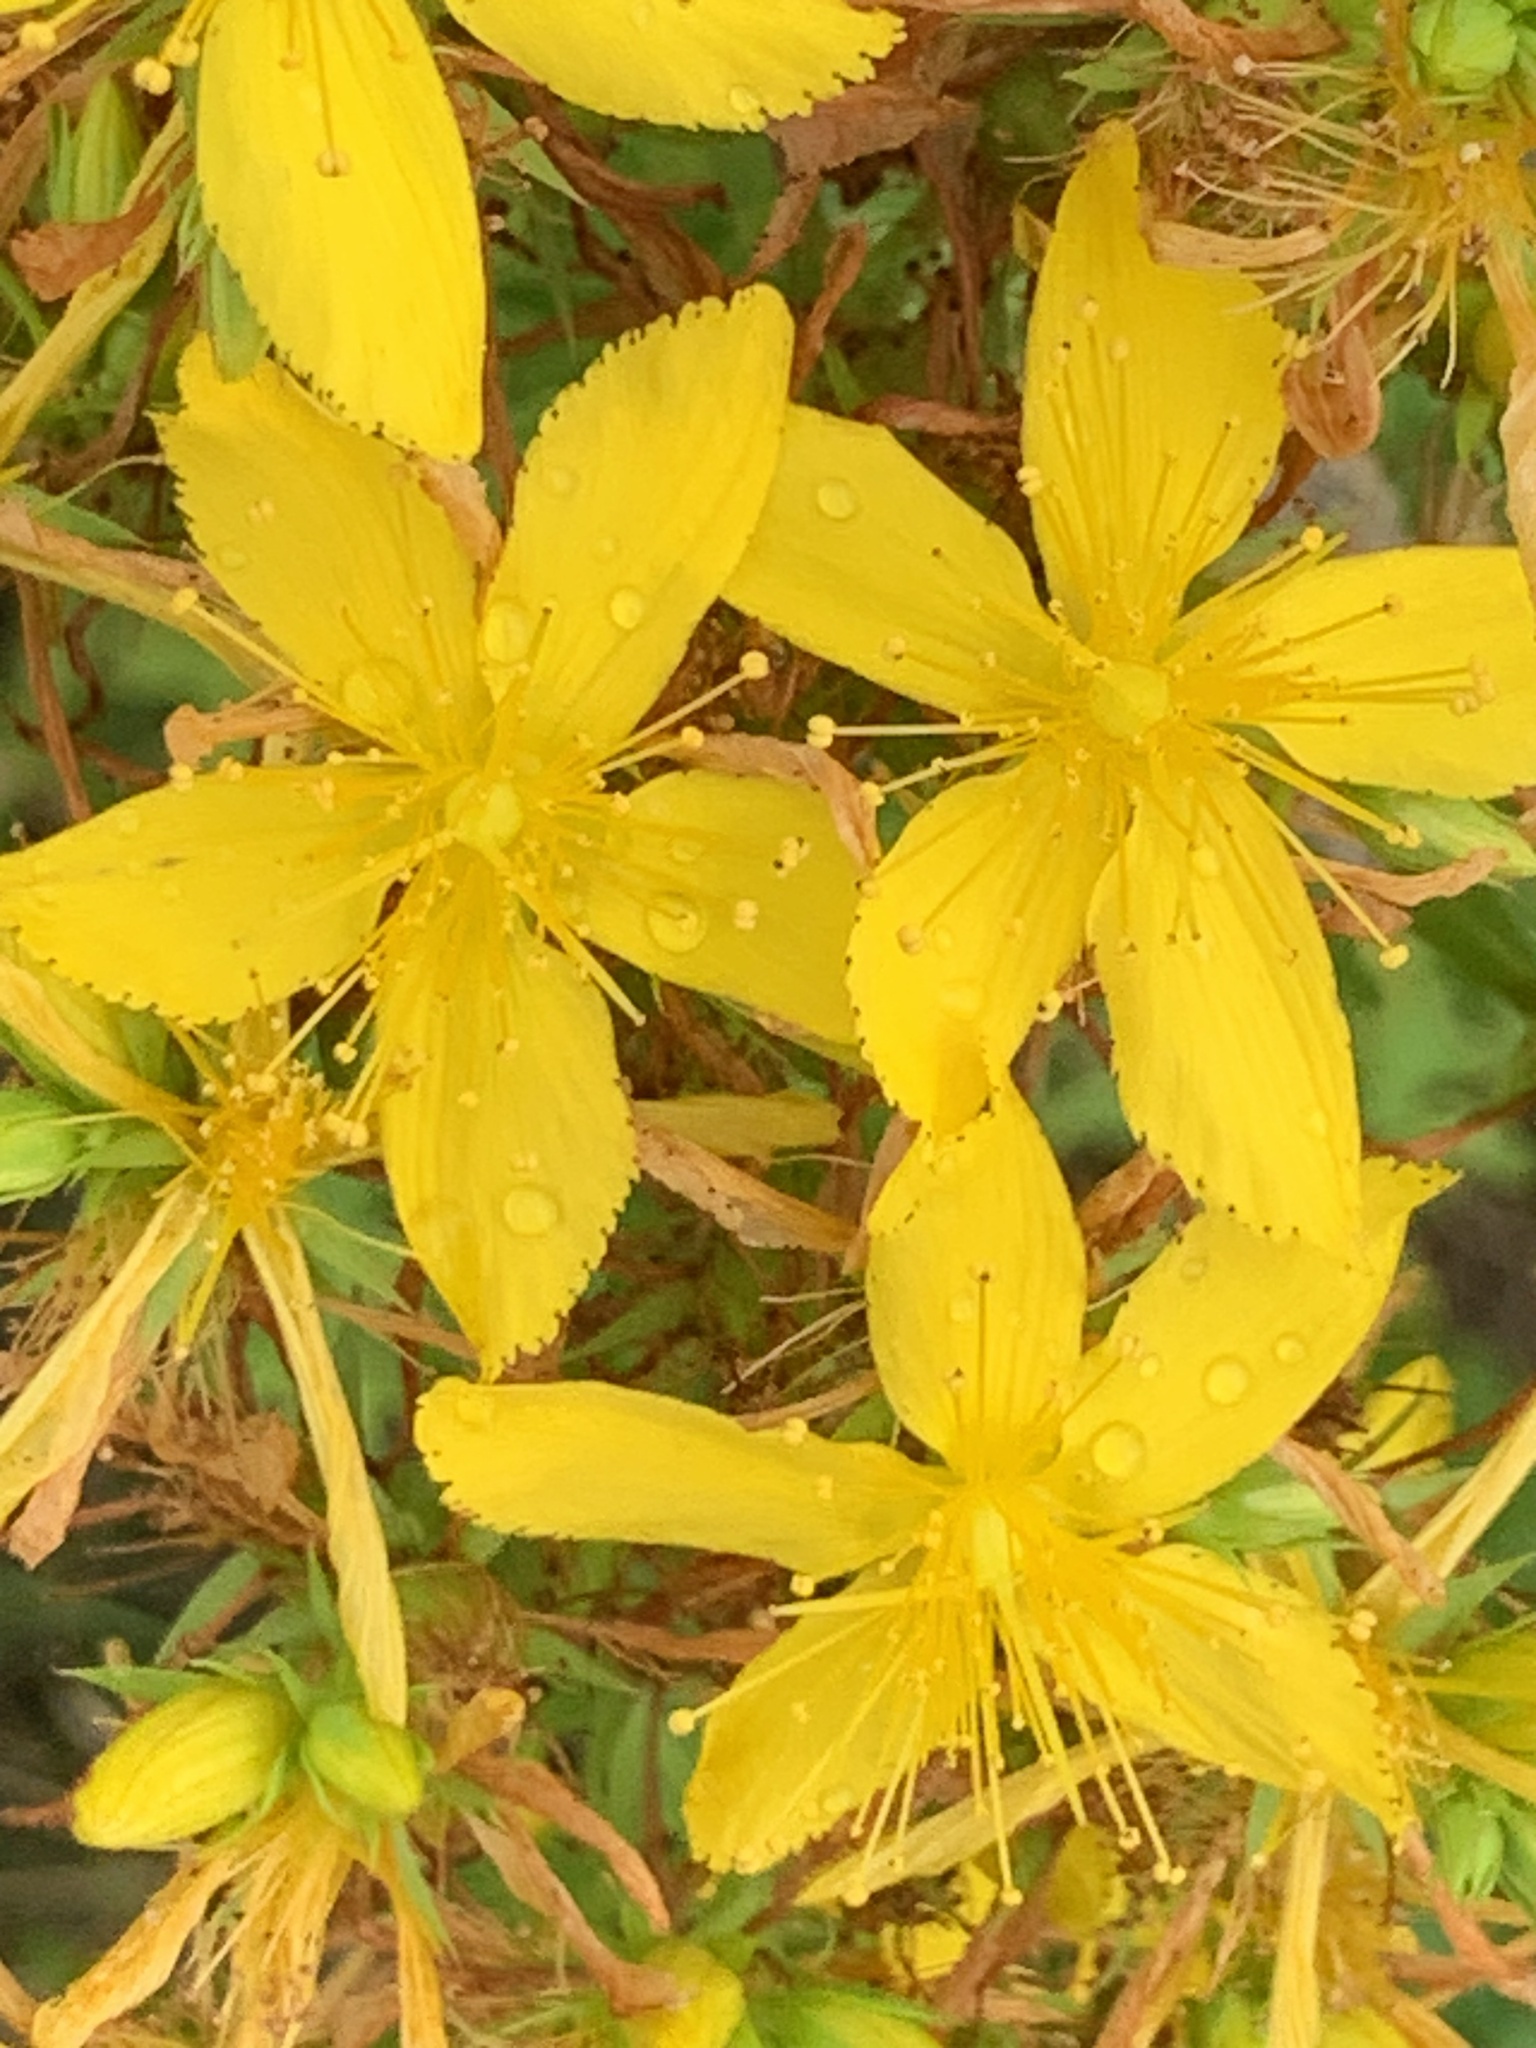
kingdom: Plantae
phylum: Tracheophyta
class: Magnoliopsida
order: Malpighiales
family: Hypericaceae
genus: Hypericum
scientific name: Hypericum perforatum
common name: Common st. johnswort
